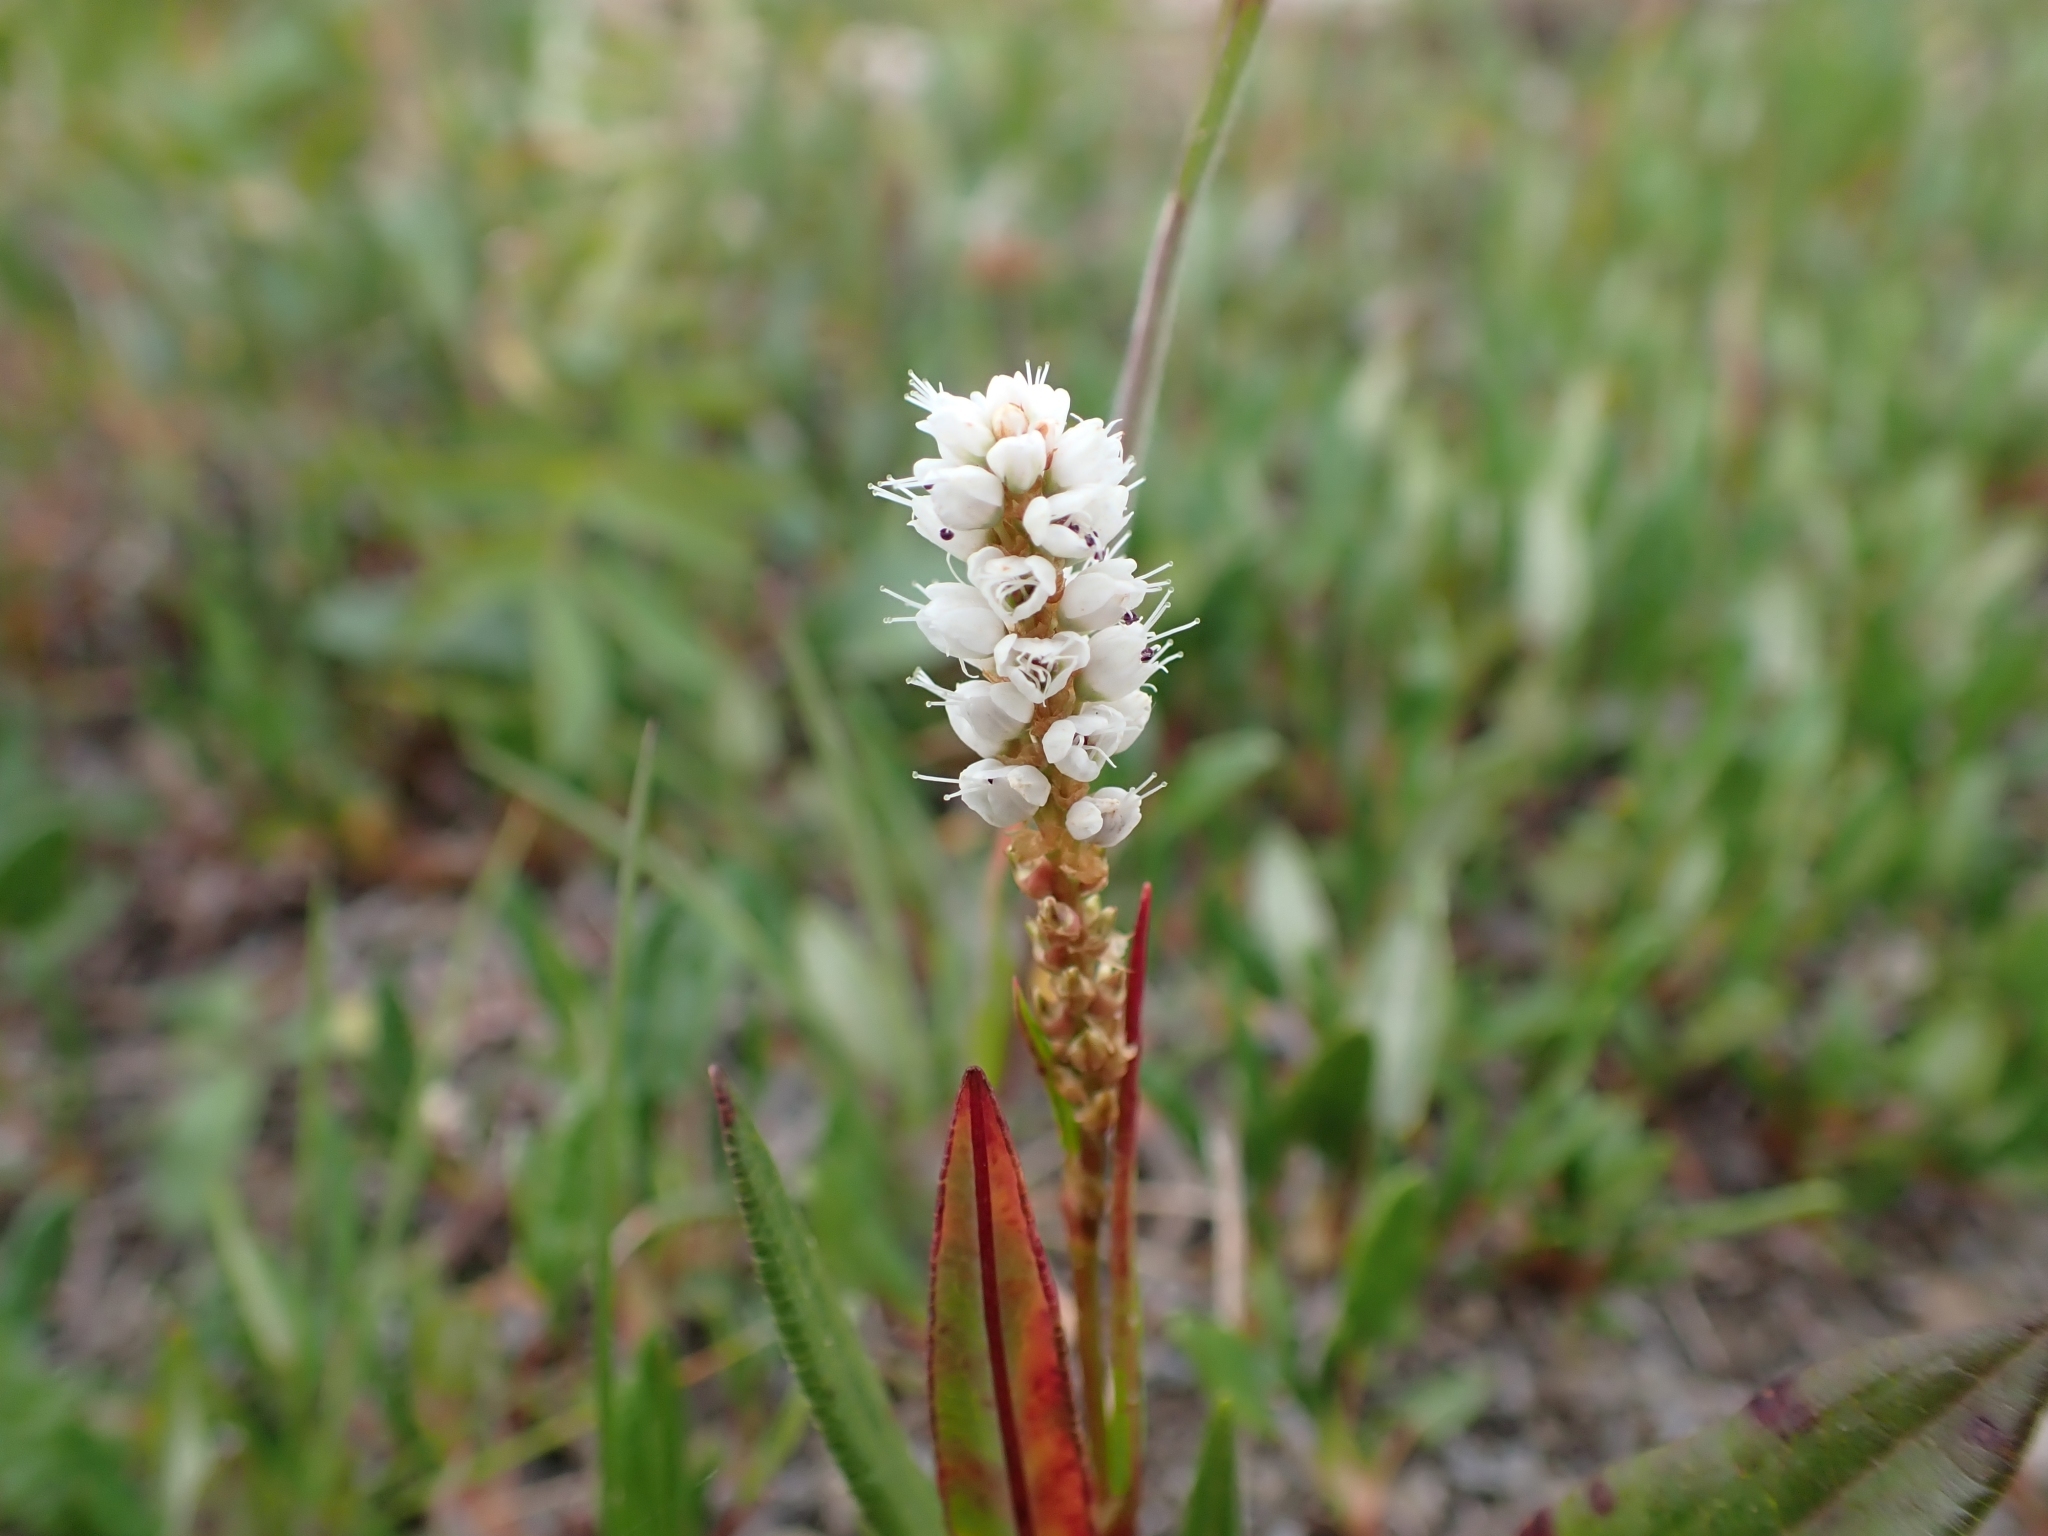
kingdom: Plantae
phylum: Tracheophyta
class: Magnoliopsida
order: Caryophyllales
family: Polygonaceae
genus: Bistorta
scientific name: Bistorta vivipara
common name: Alpine bistort
